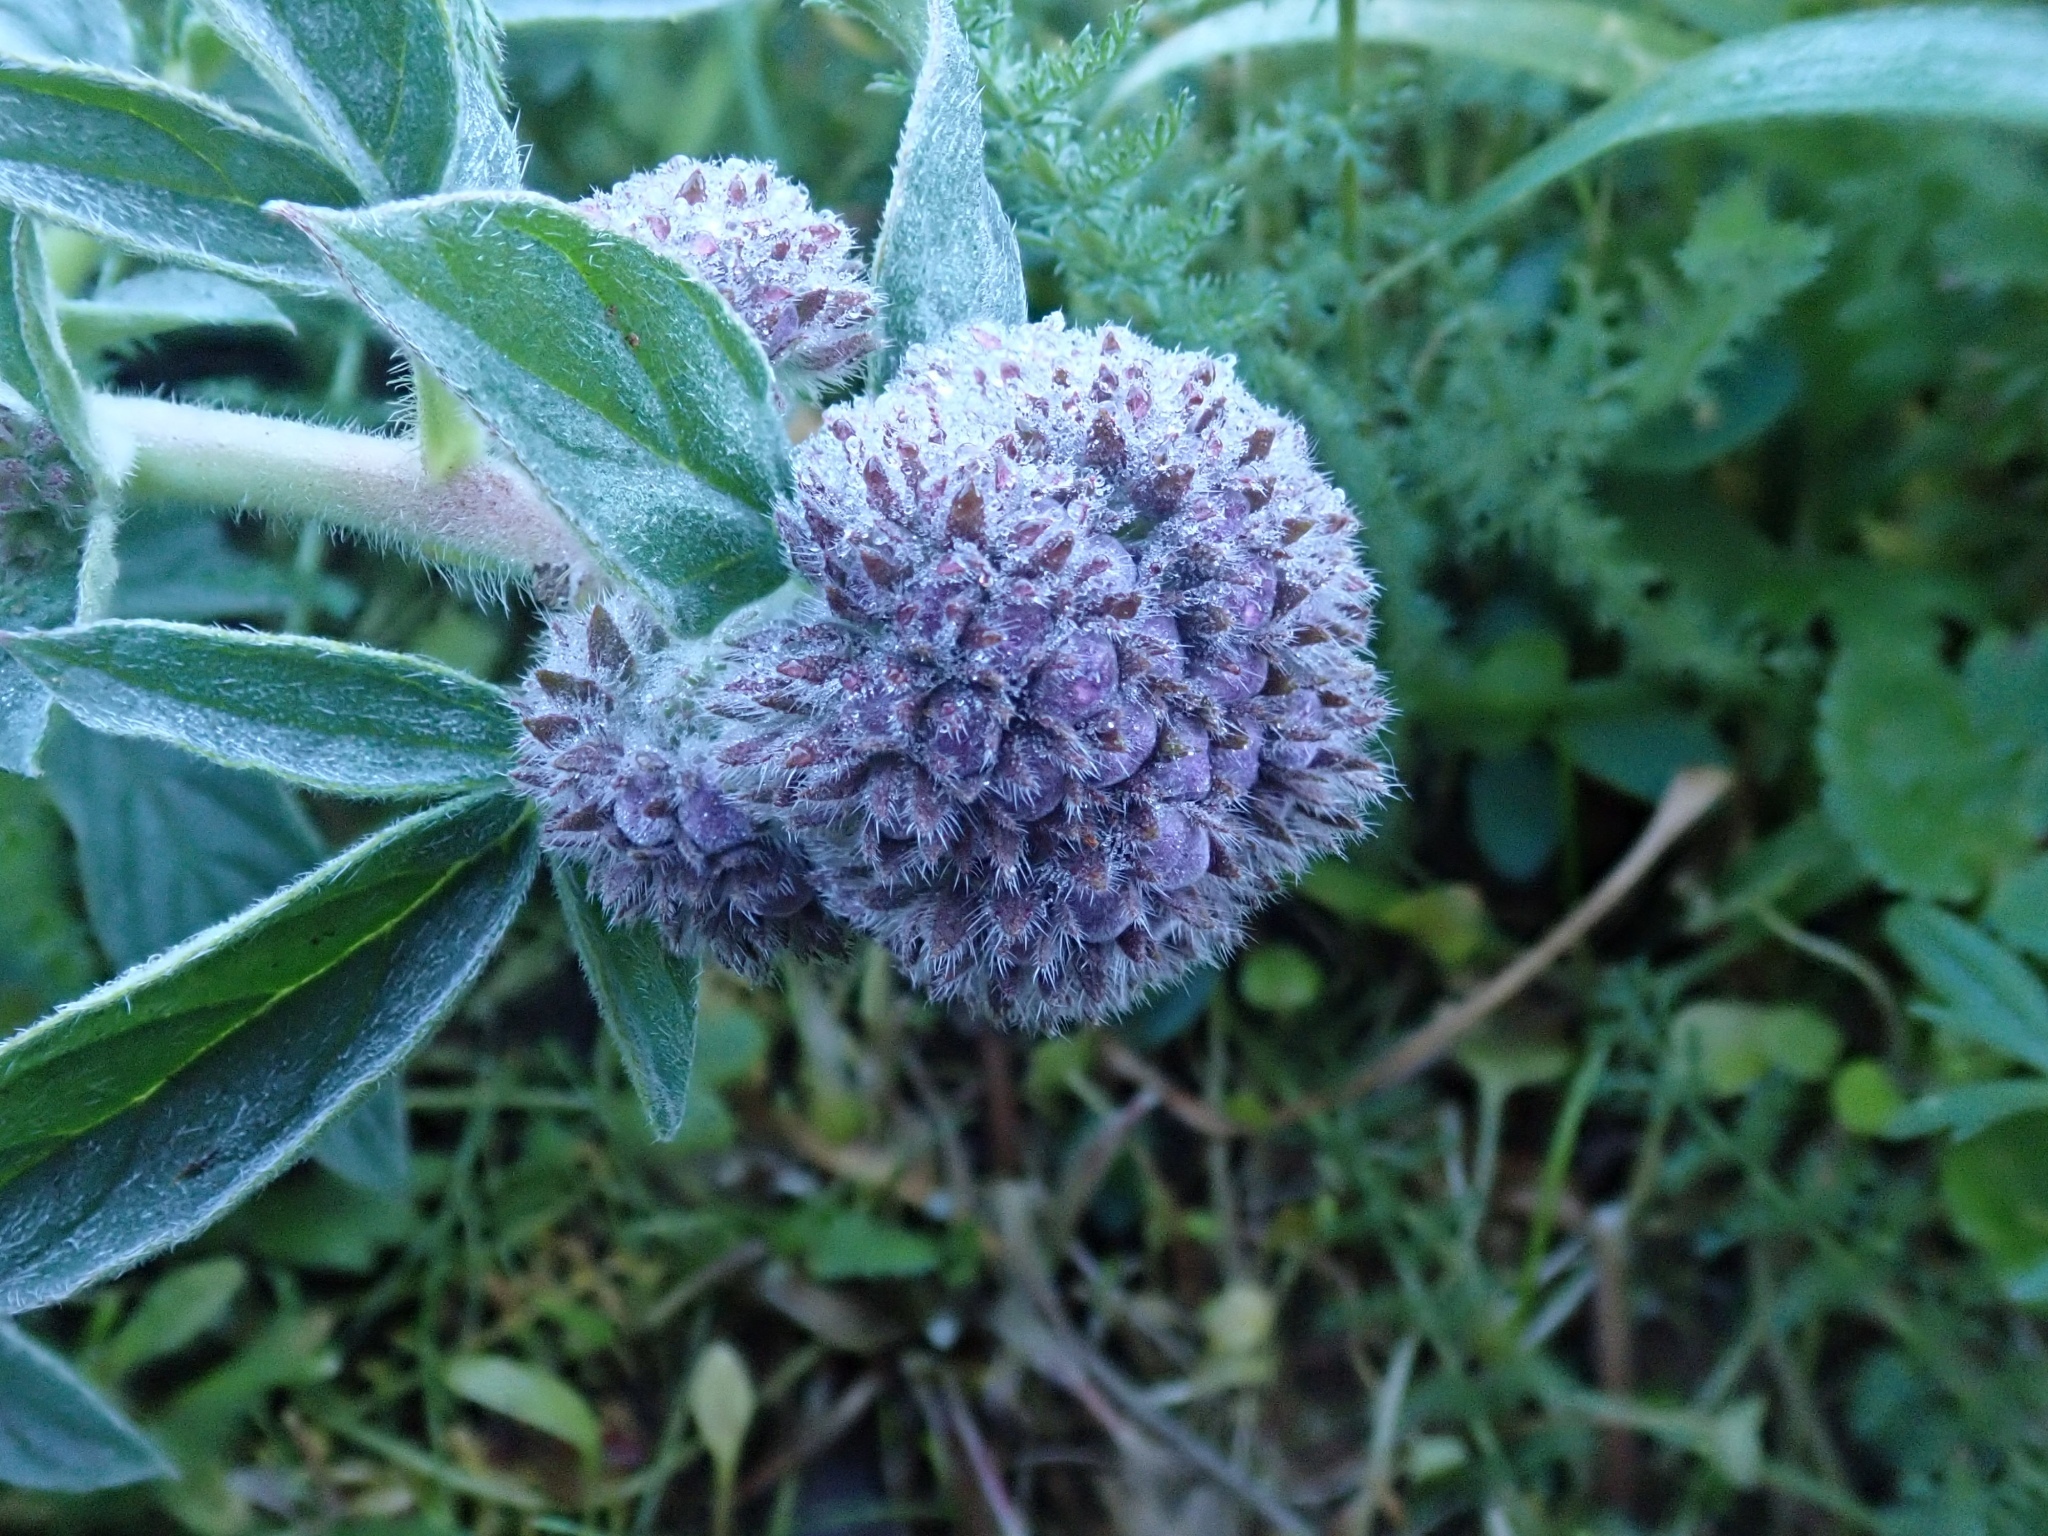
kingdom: Plantae
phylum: Tracheophyta
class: Magnoliopsida
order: Boraginales
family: Hydrophyllaceae
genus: Phacelia
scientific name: Phacelia californica
